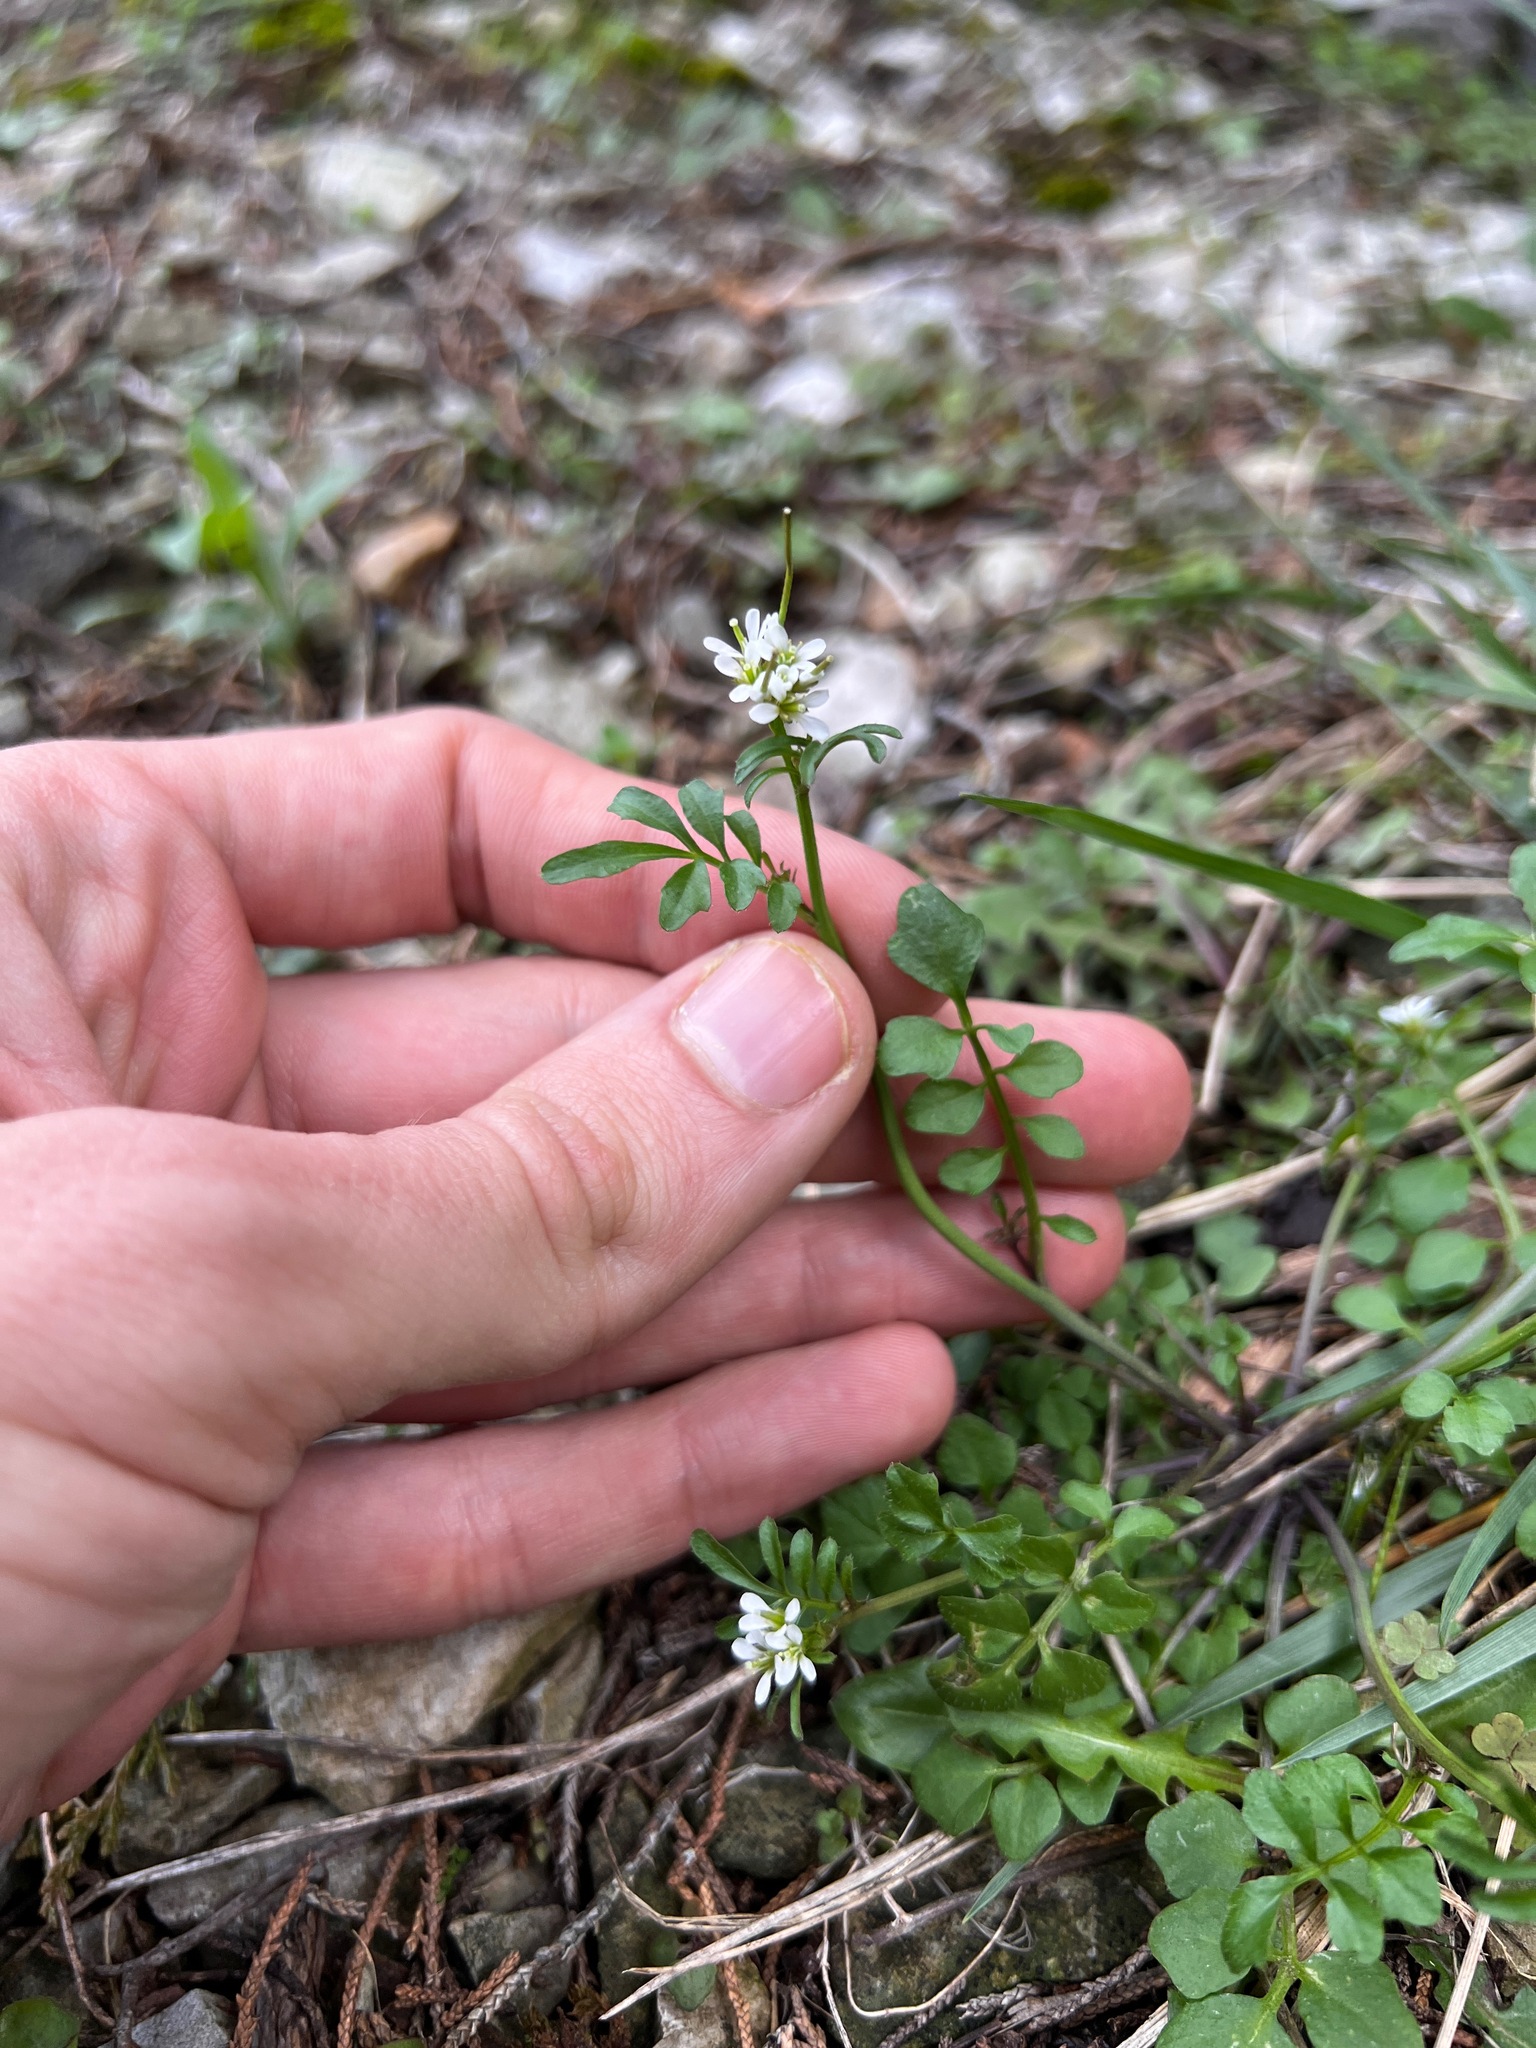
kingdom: Plantae
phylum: Tracheophyta
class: Magnoliopsida
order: Brassicales
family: Brassicaceae
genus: Cardamine
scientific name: Cardamine hirsuta
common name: Hairy bittercress
